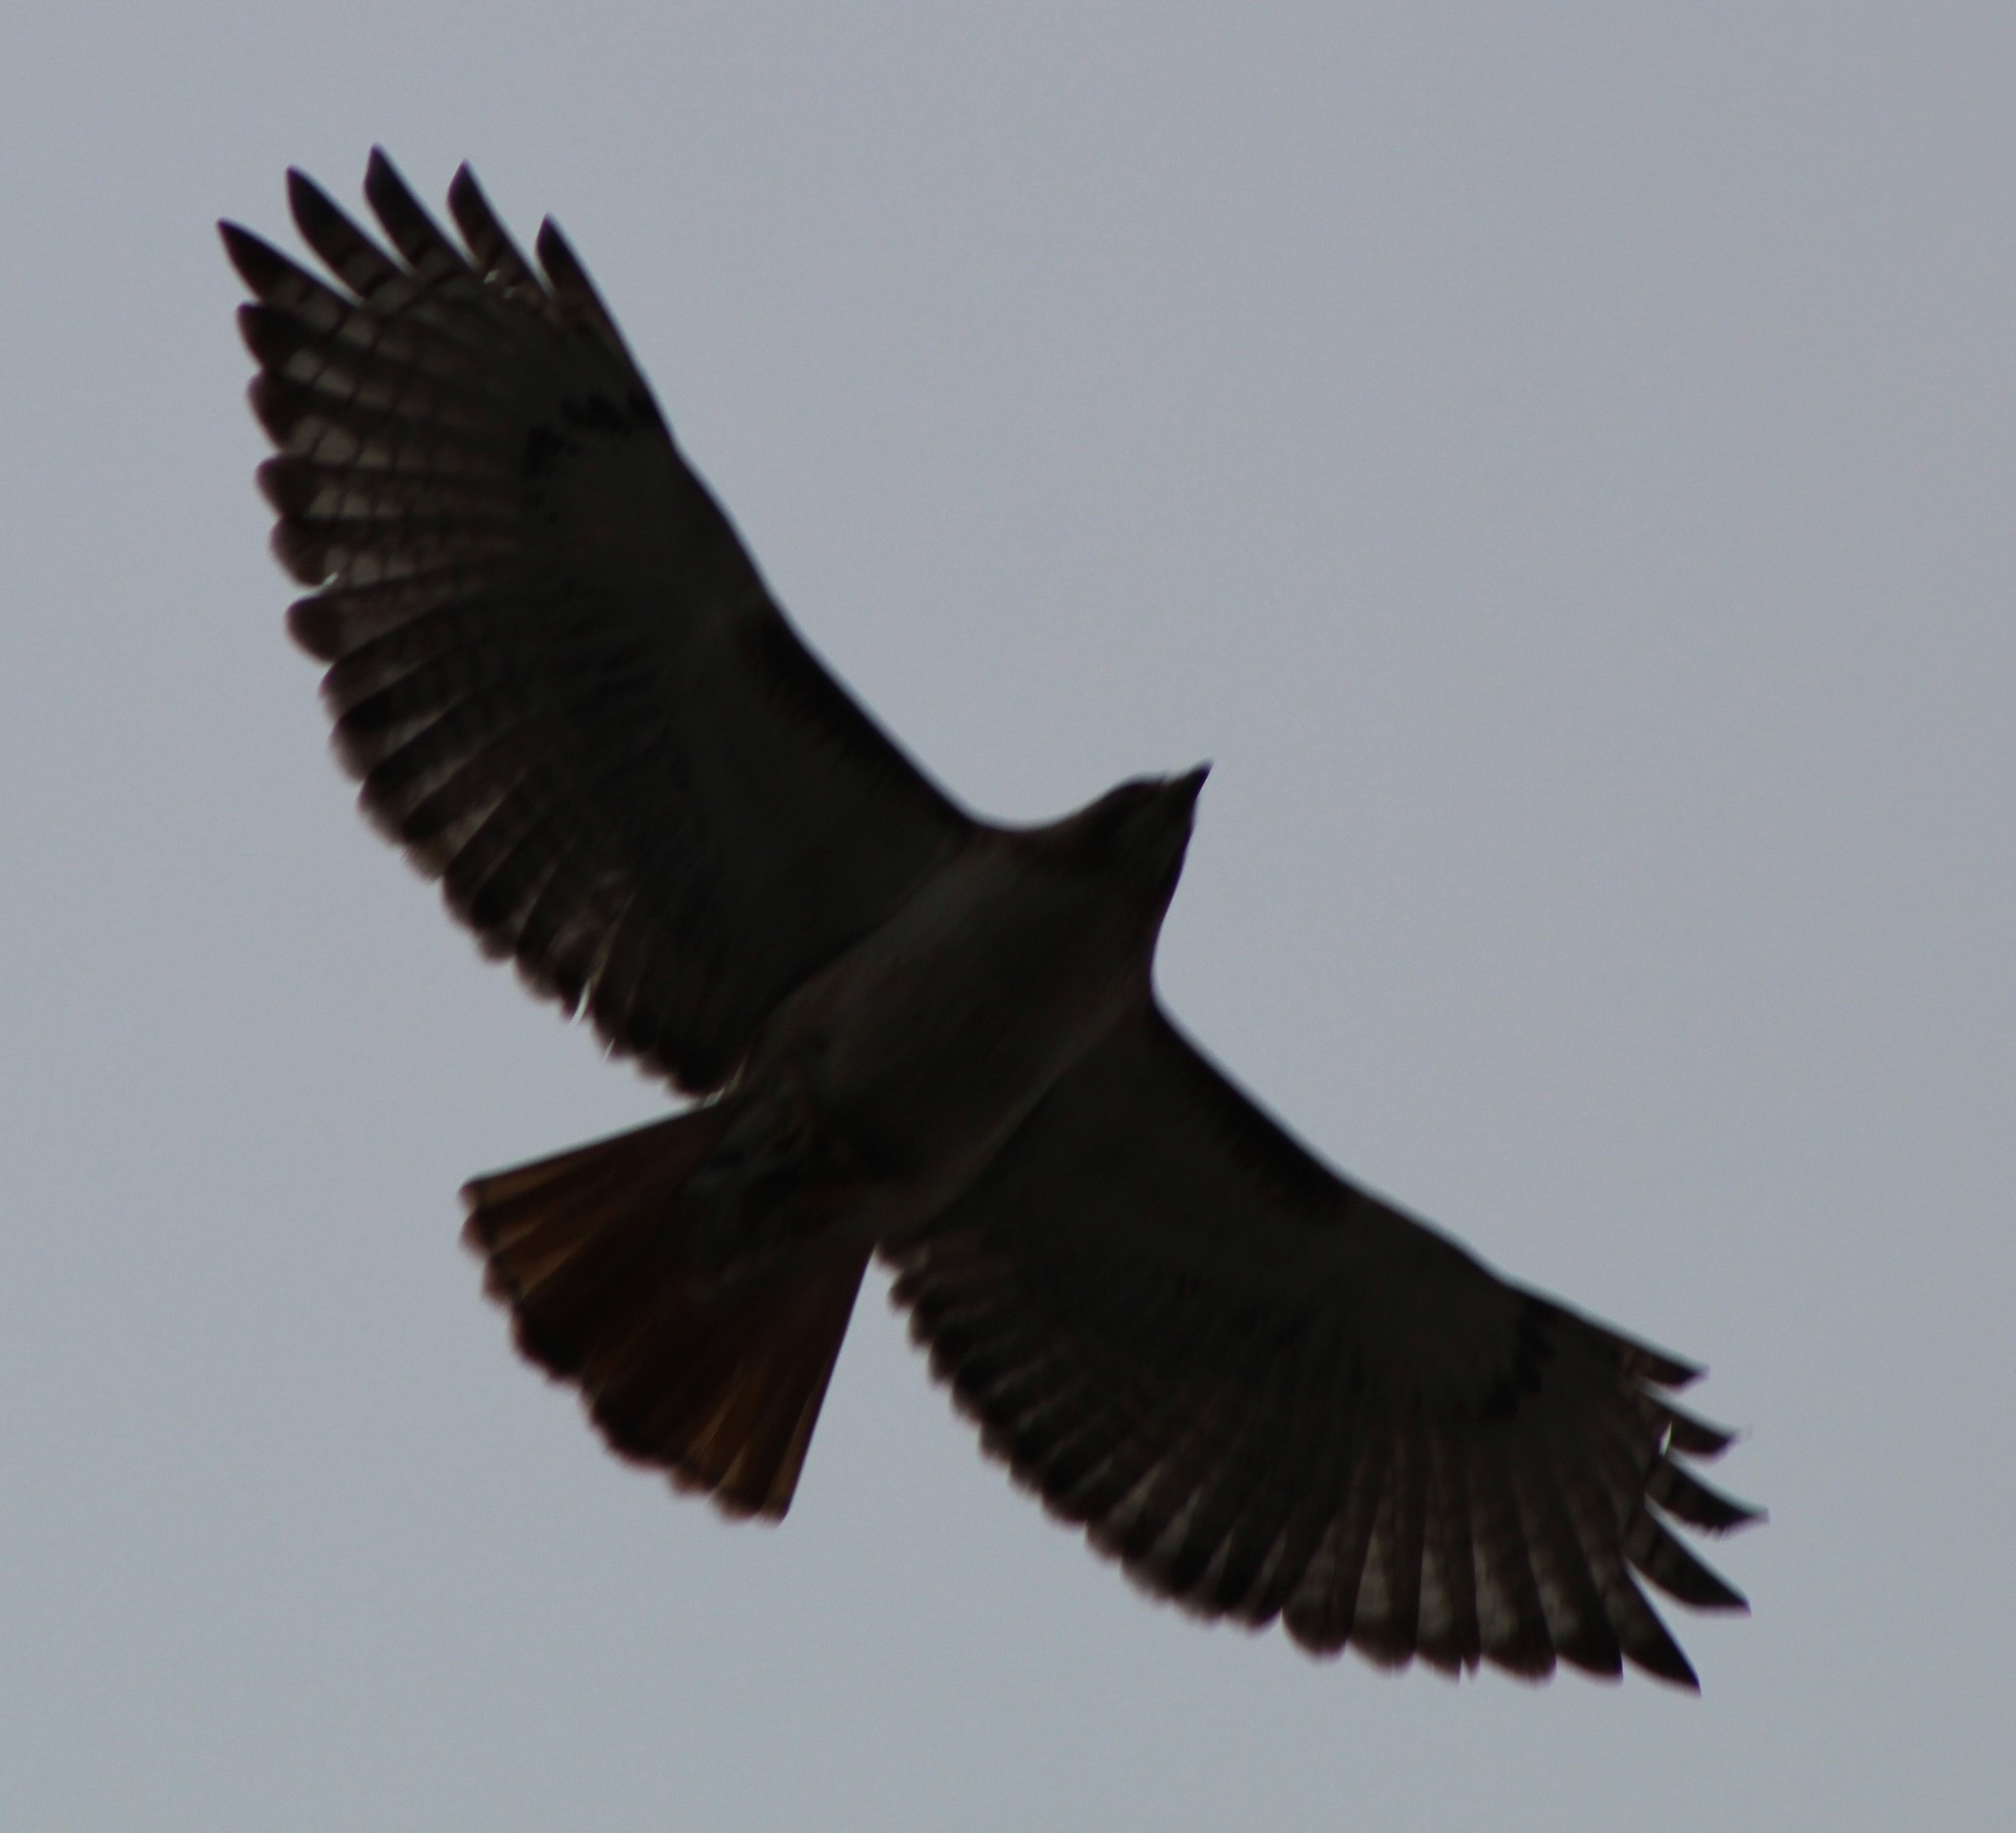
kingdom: Animalia
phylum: Chordata
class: Aves
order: Accipitriformes
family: Accipitridae
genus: Buteo
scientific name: Buteo jamaicensis
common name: Red-tailed hawk
